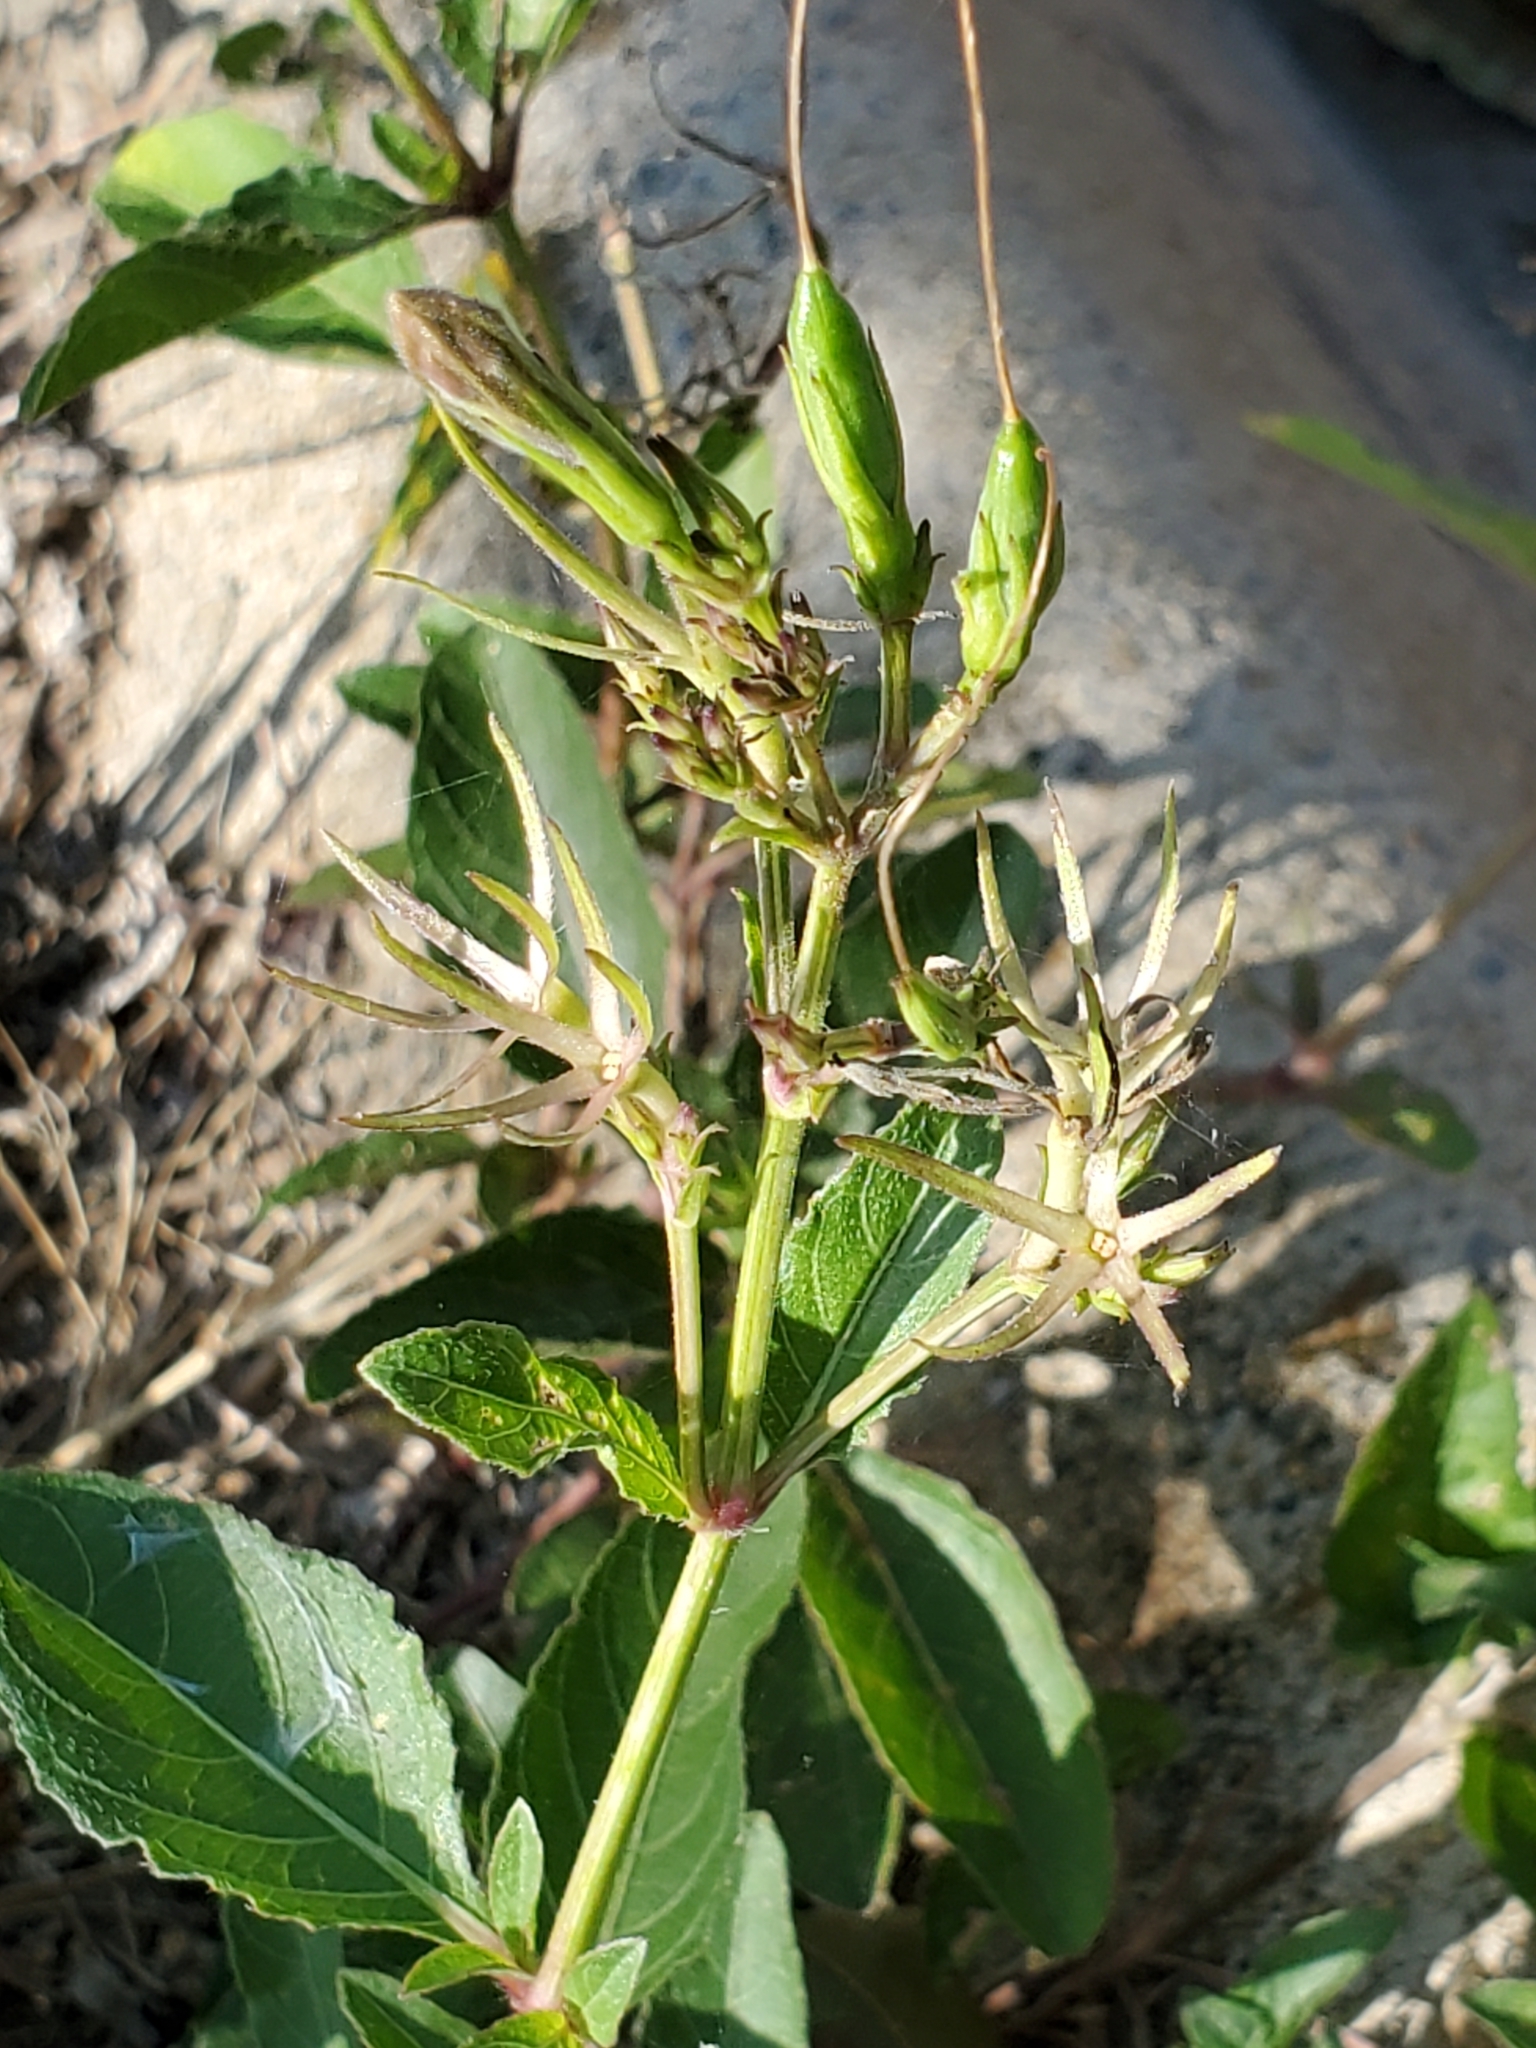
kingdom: Plantae
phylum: Tracheophyta
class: Magnoliopsida
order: Lamiales
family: Acanthaceae
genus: Ruellia
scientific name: Ruellia ciliatiflora
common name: Hairyflower wild petunia
